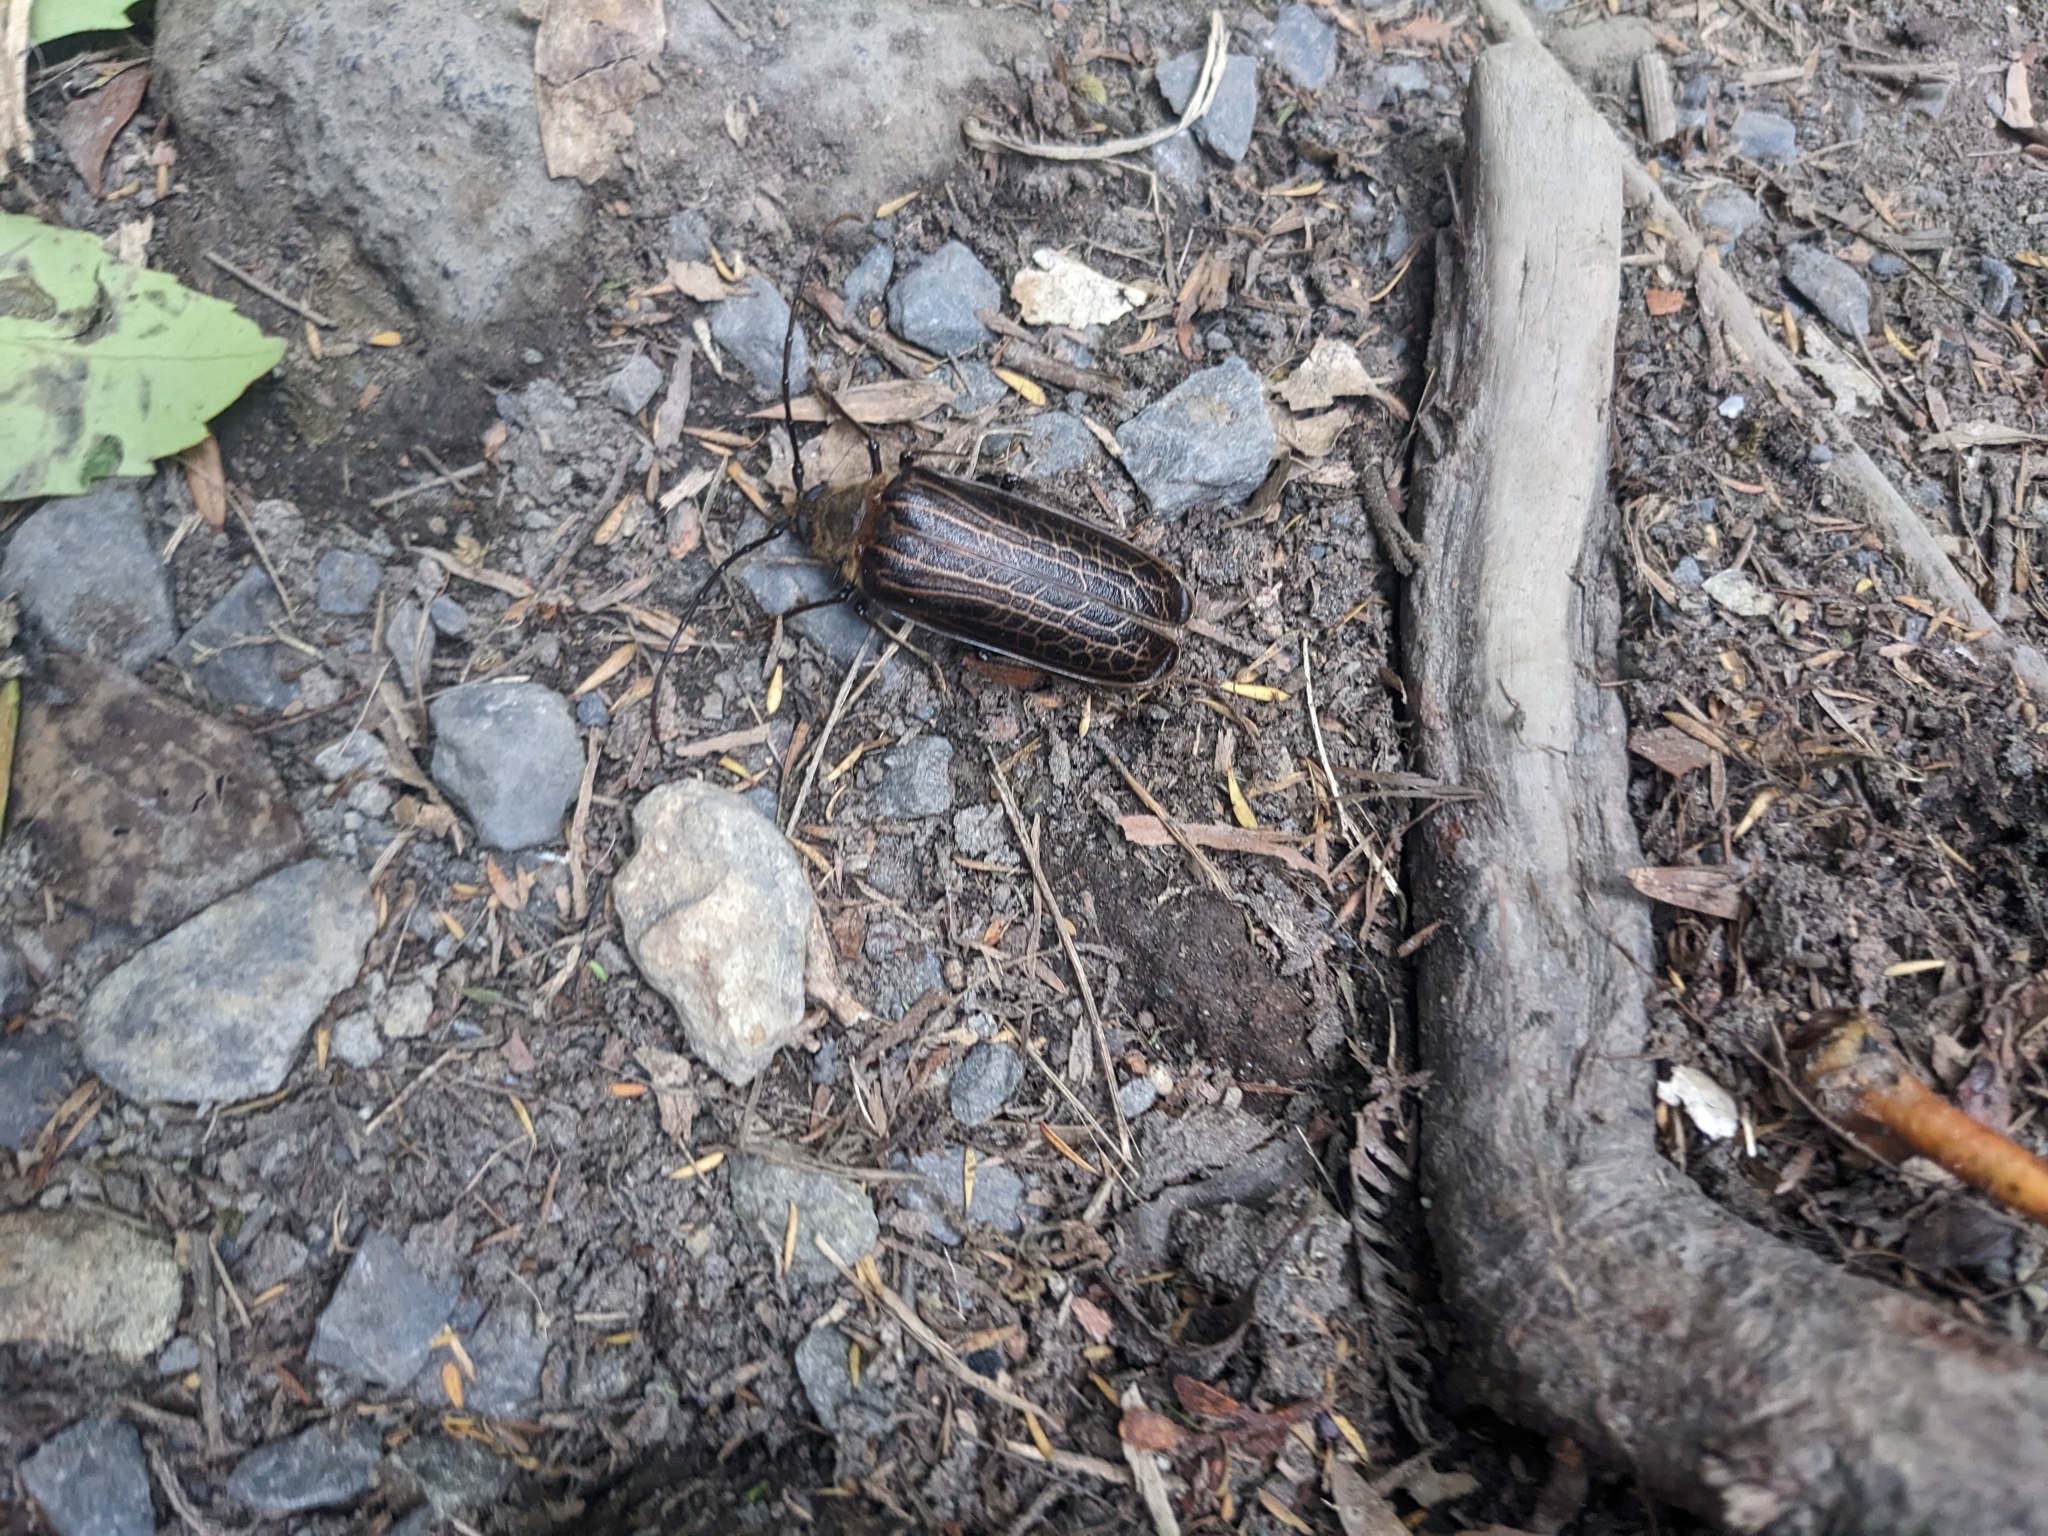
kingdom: Animalia
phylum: Arthropoda
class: Insecta
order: Coleoptera
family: Cerambycidae
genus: Prionoplus
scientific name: Prionoplus reticularis
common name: Huhu beetle
